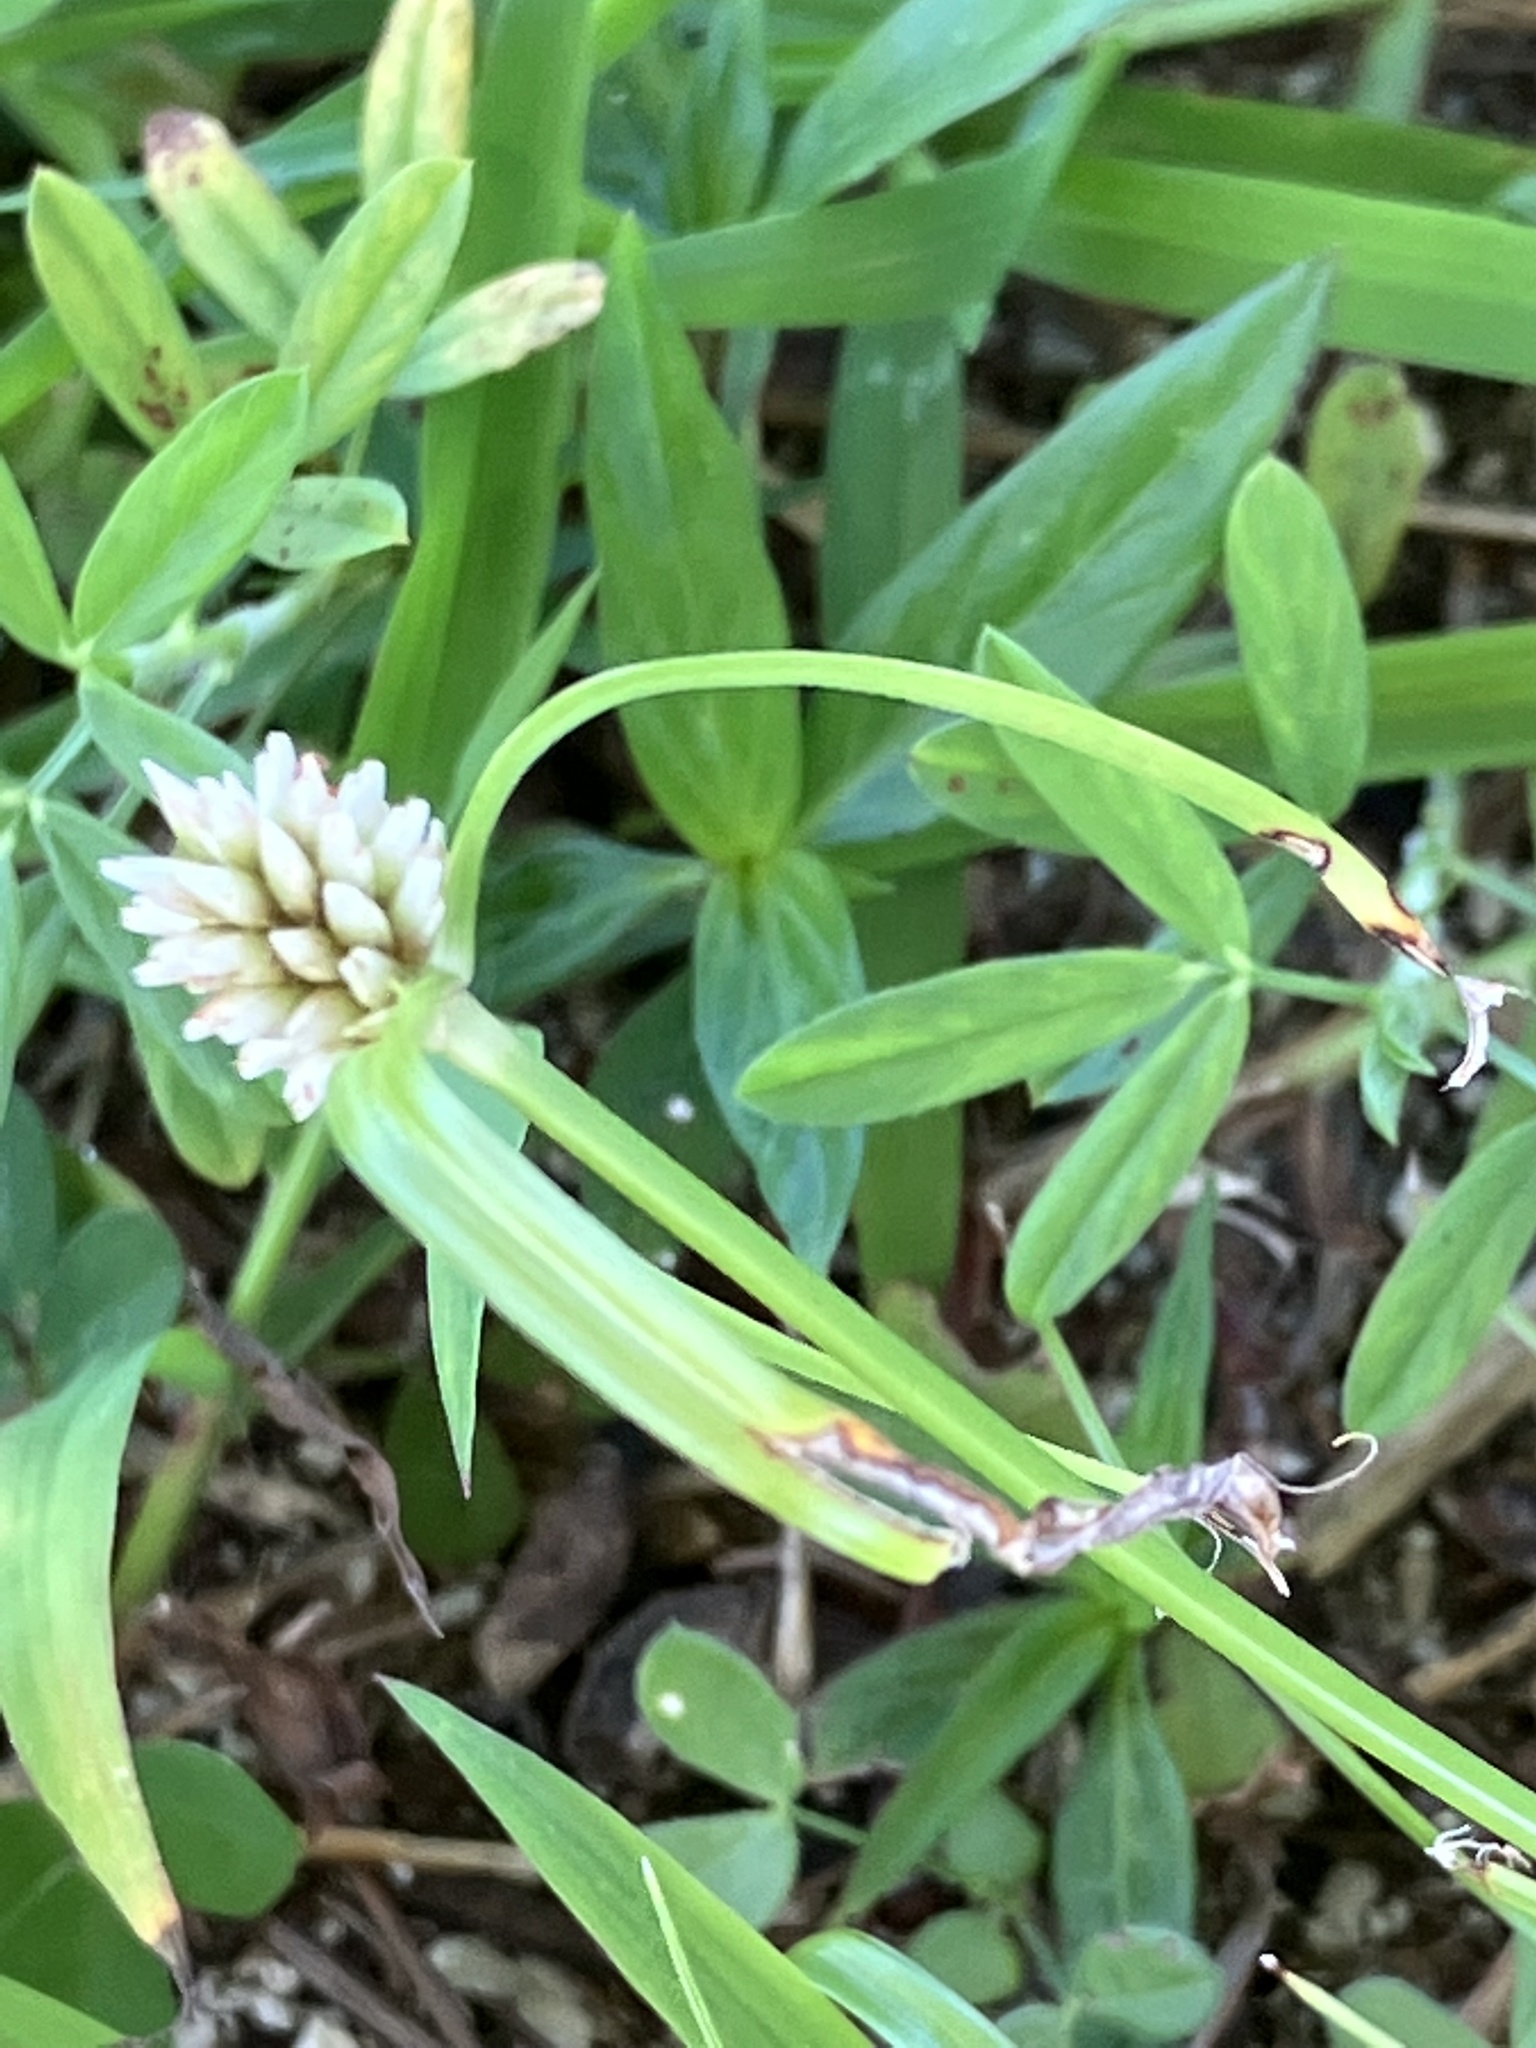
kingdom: Plantae
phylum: Tracheophyta
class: Liliopsida
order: Poales
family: Cyperaceae
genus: Cyperus
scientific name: Cyperus mindorensis
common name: Flatsedge
